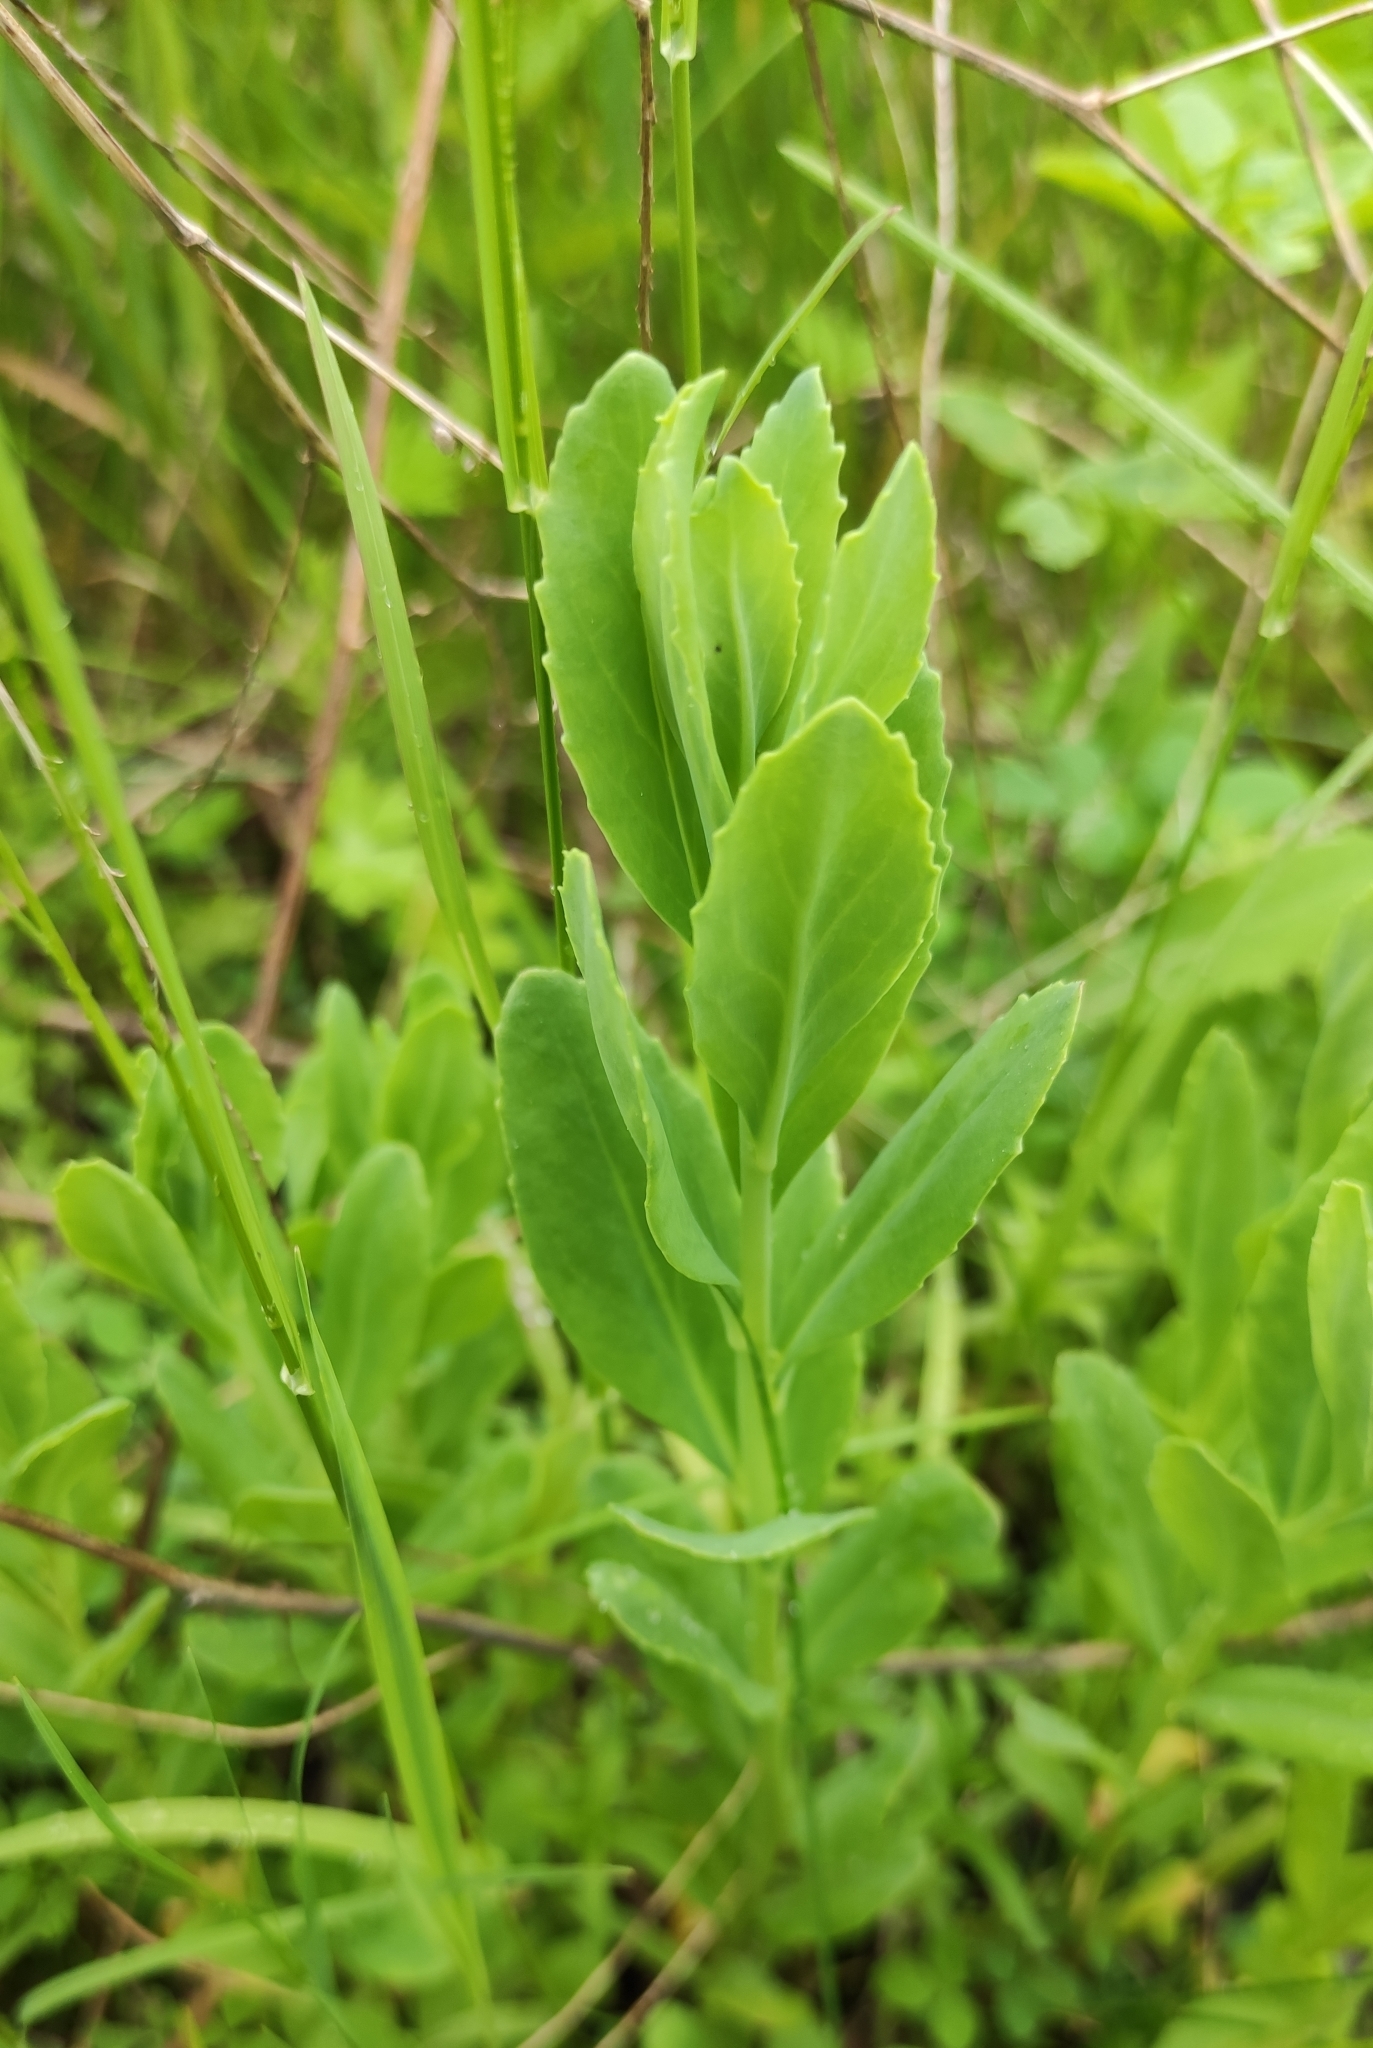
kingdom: Plantae
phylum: Tracheophyta
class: Magnoliopsida
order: Saxifragales
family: Crassulaceae
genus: Hylotelephium
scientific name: Hylotelephium telephium
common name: Live-forever
